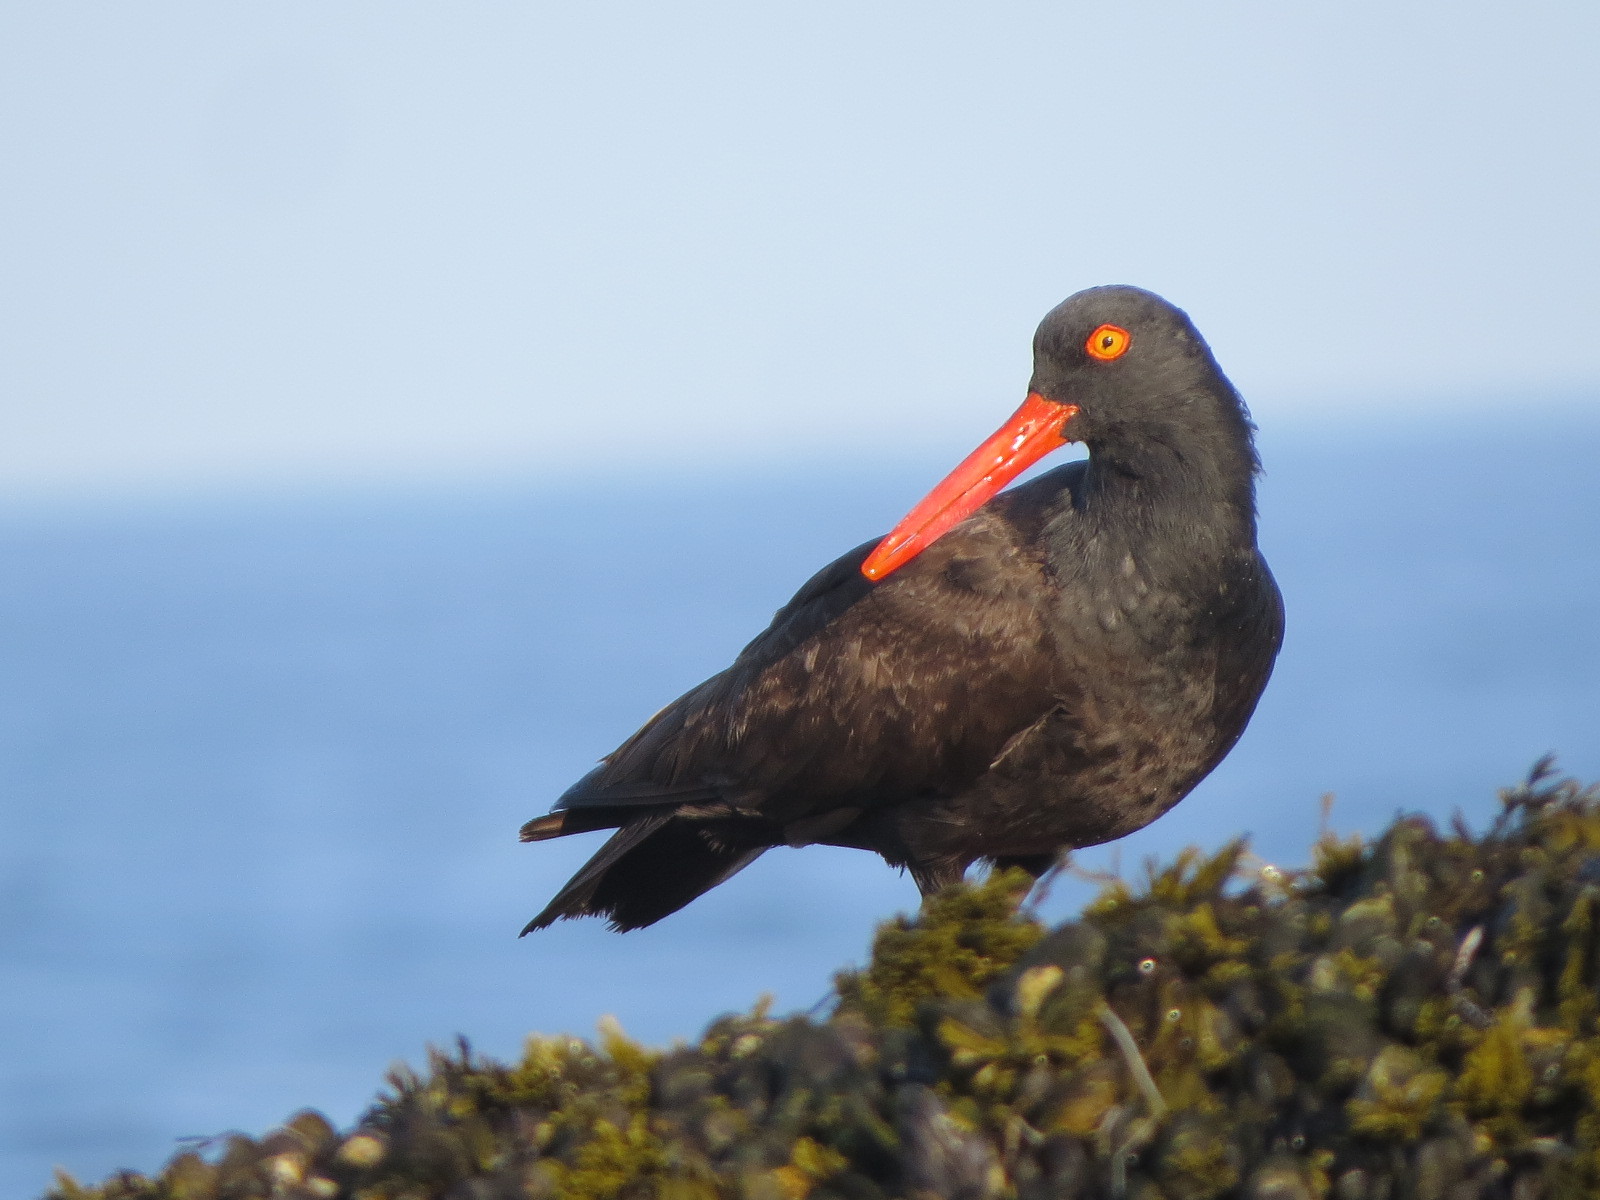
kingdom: Animalia
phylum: Chordata
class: Aves
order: Charadriiformes
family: Haematopodidae
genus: Haematopus
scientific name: Haematopus bachmani
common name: Black oystercatcher
